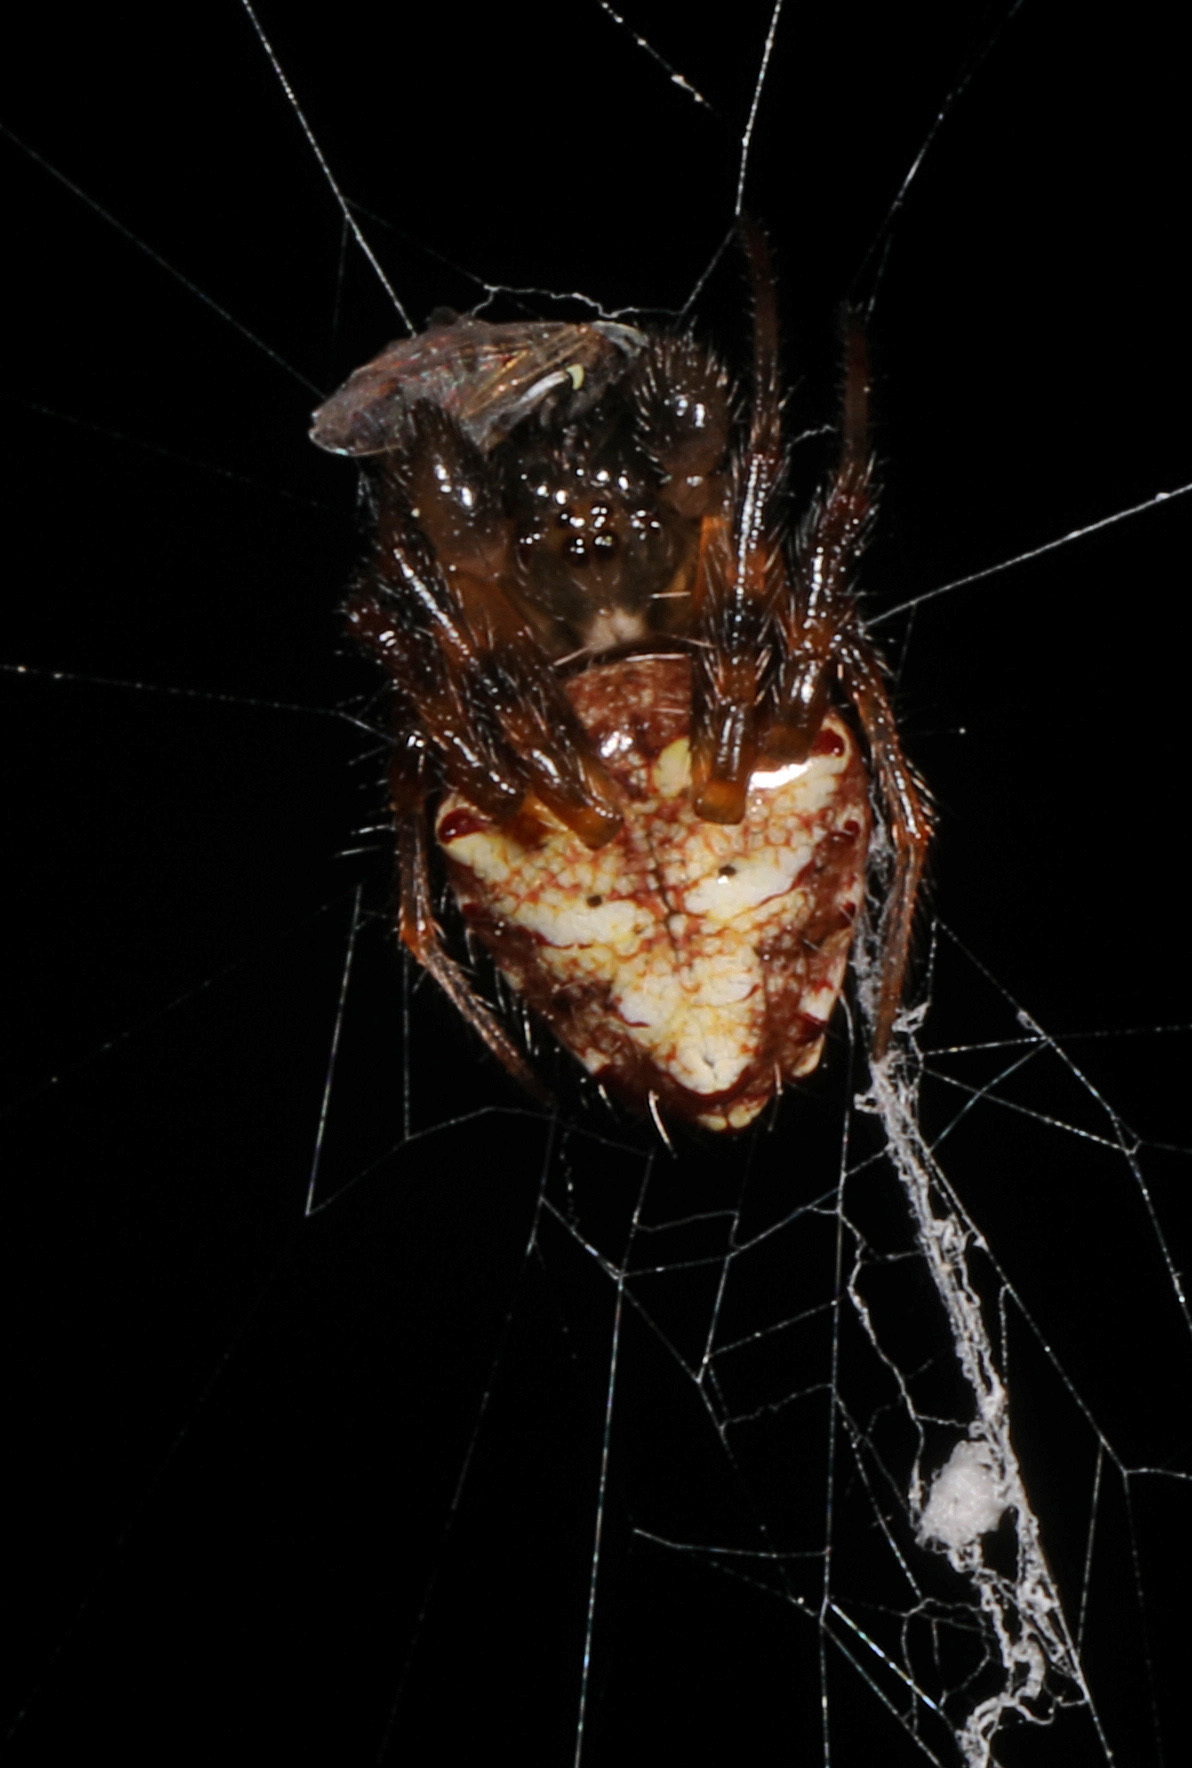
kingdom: Animalia
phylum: Arthropoda
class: Arachnida
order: Araneae
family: Araneidae
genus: Verrucosa
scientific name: Verrucosa arenata
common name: Orb weavers
